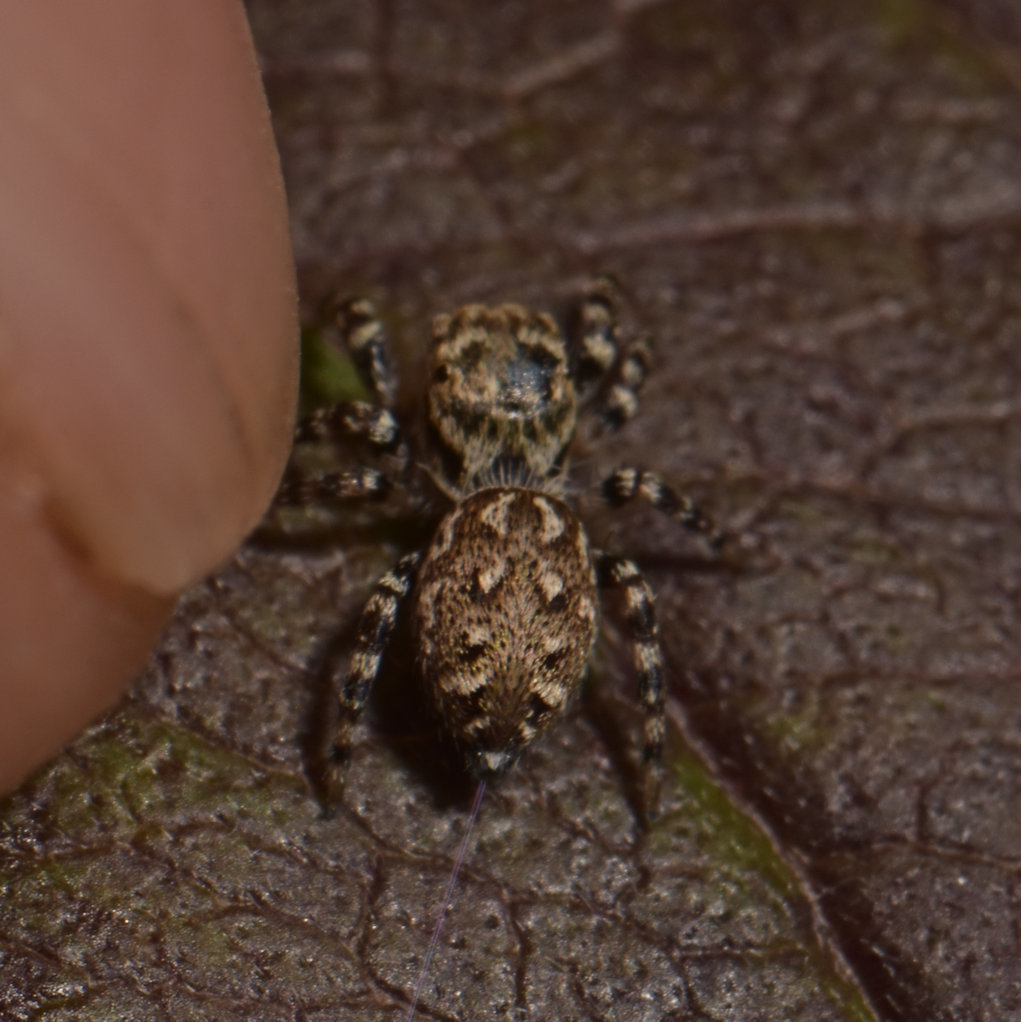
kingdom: Animalia
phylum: Arthropoda
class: Arachnida
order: Araneae
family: Salticidae
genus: Pelegrina
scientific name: Pelegrina galathea
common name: Jumping spiders
